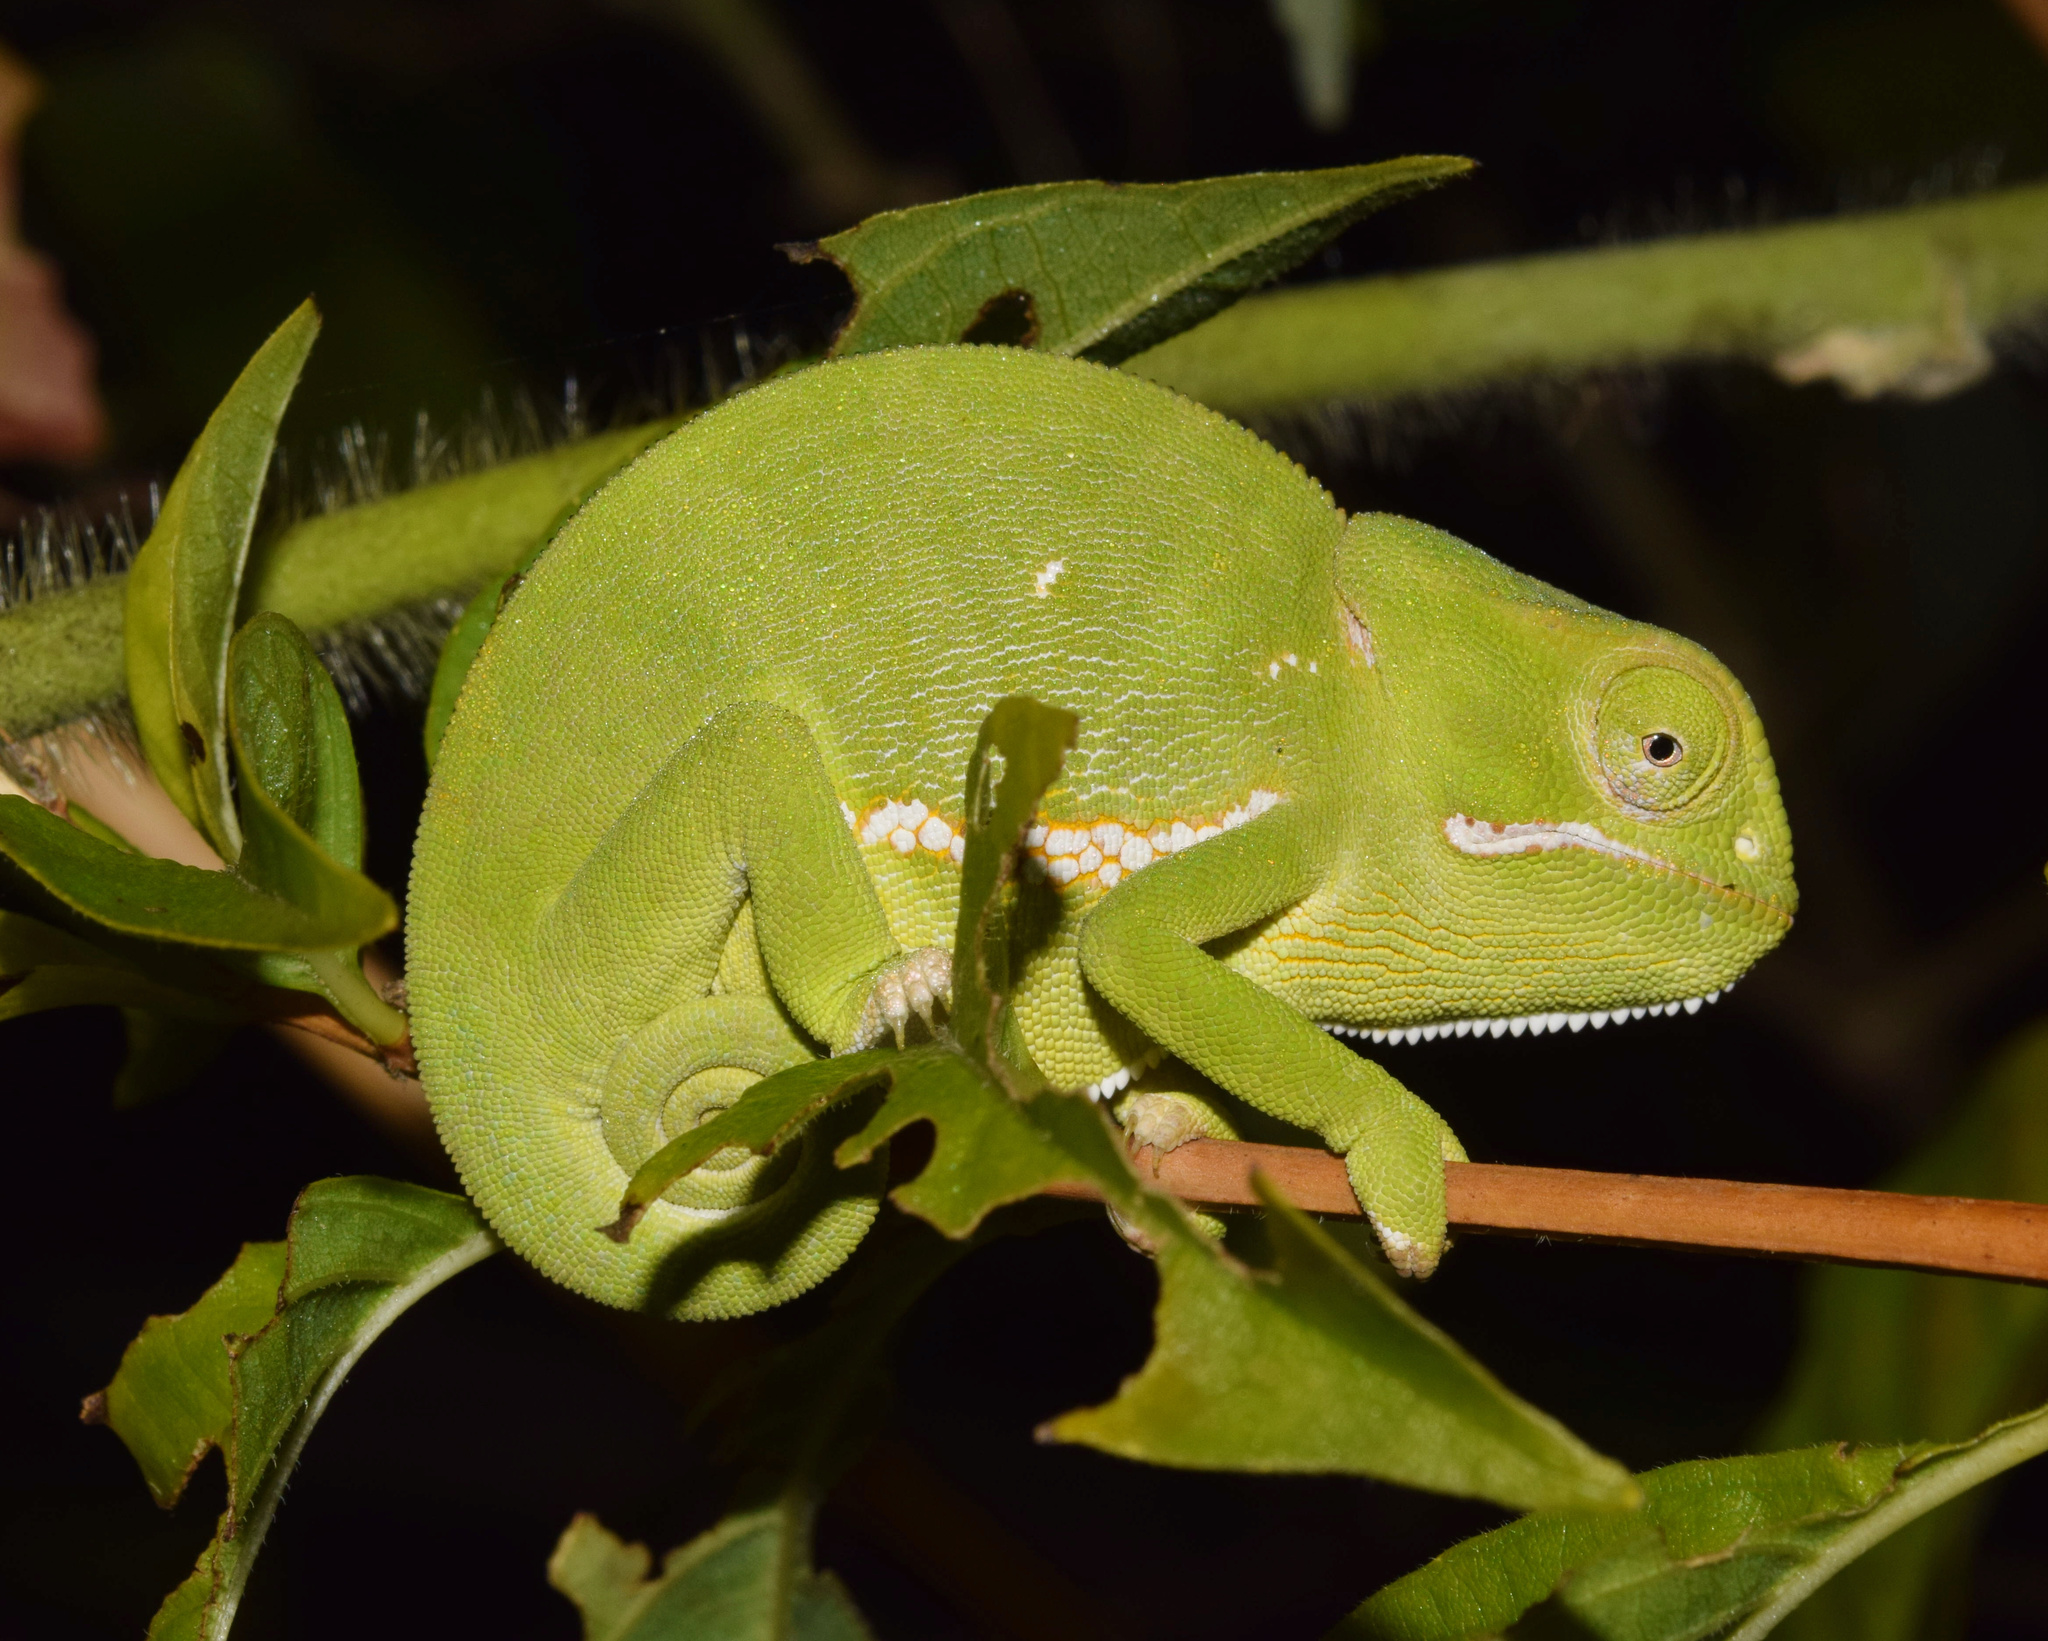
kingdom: Animalia
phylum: Chordata
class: Squamata
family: Chamaeleonidae
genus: Chamaeleo
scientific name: Chamaeleo dilepis
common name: Flapneck chameleon
